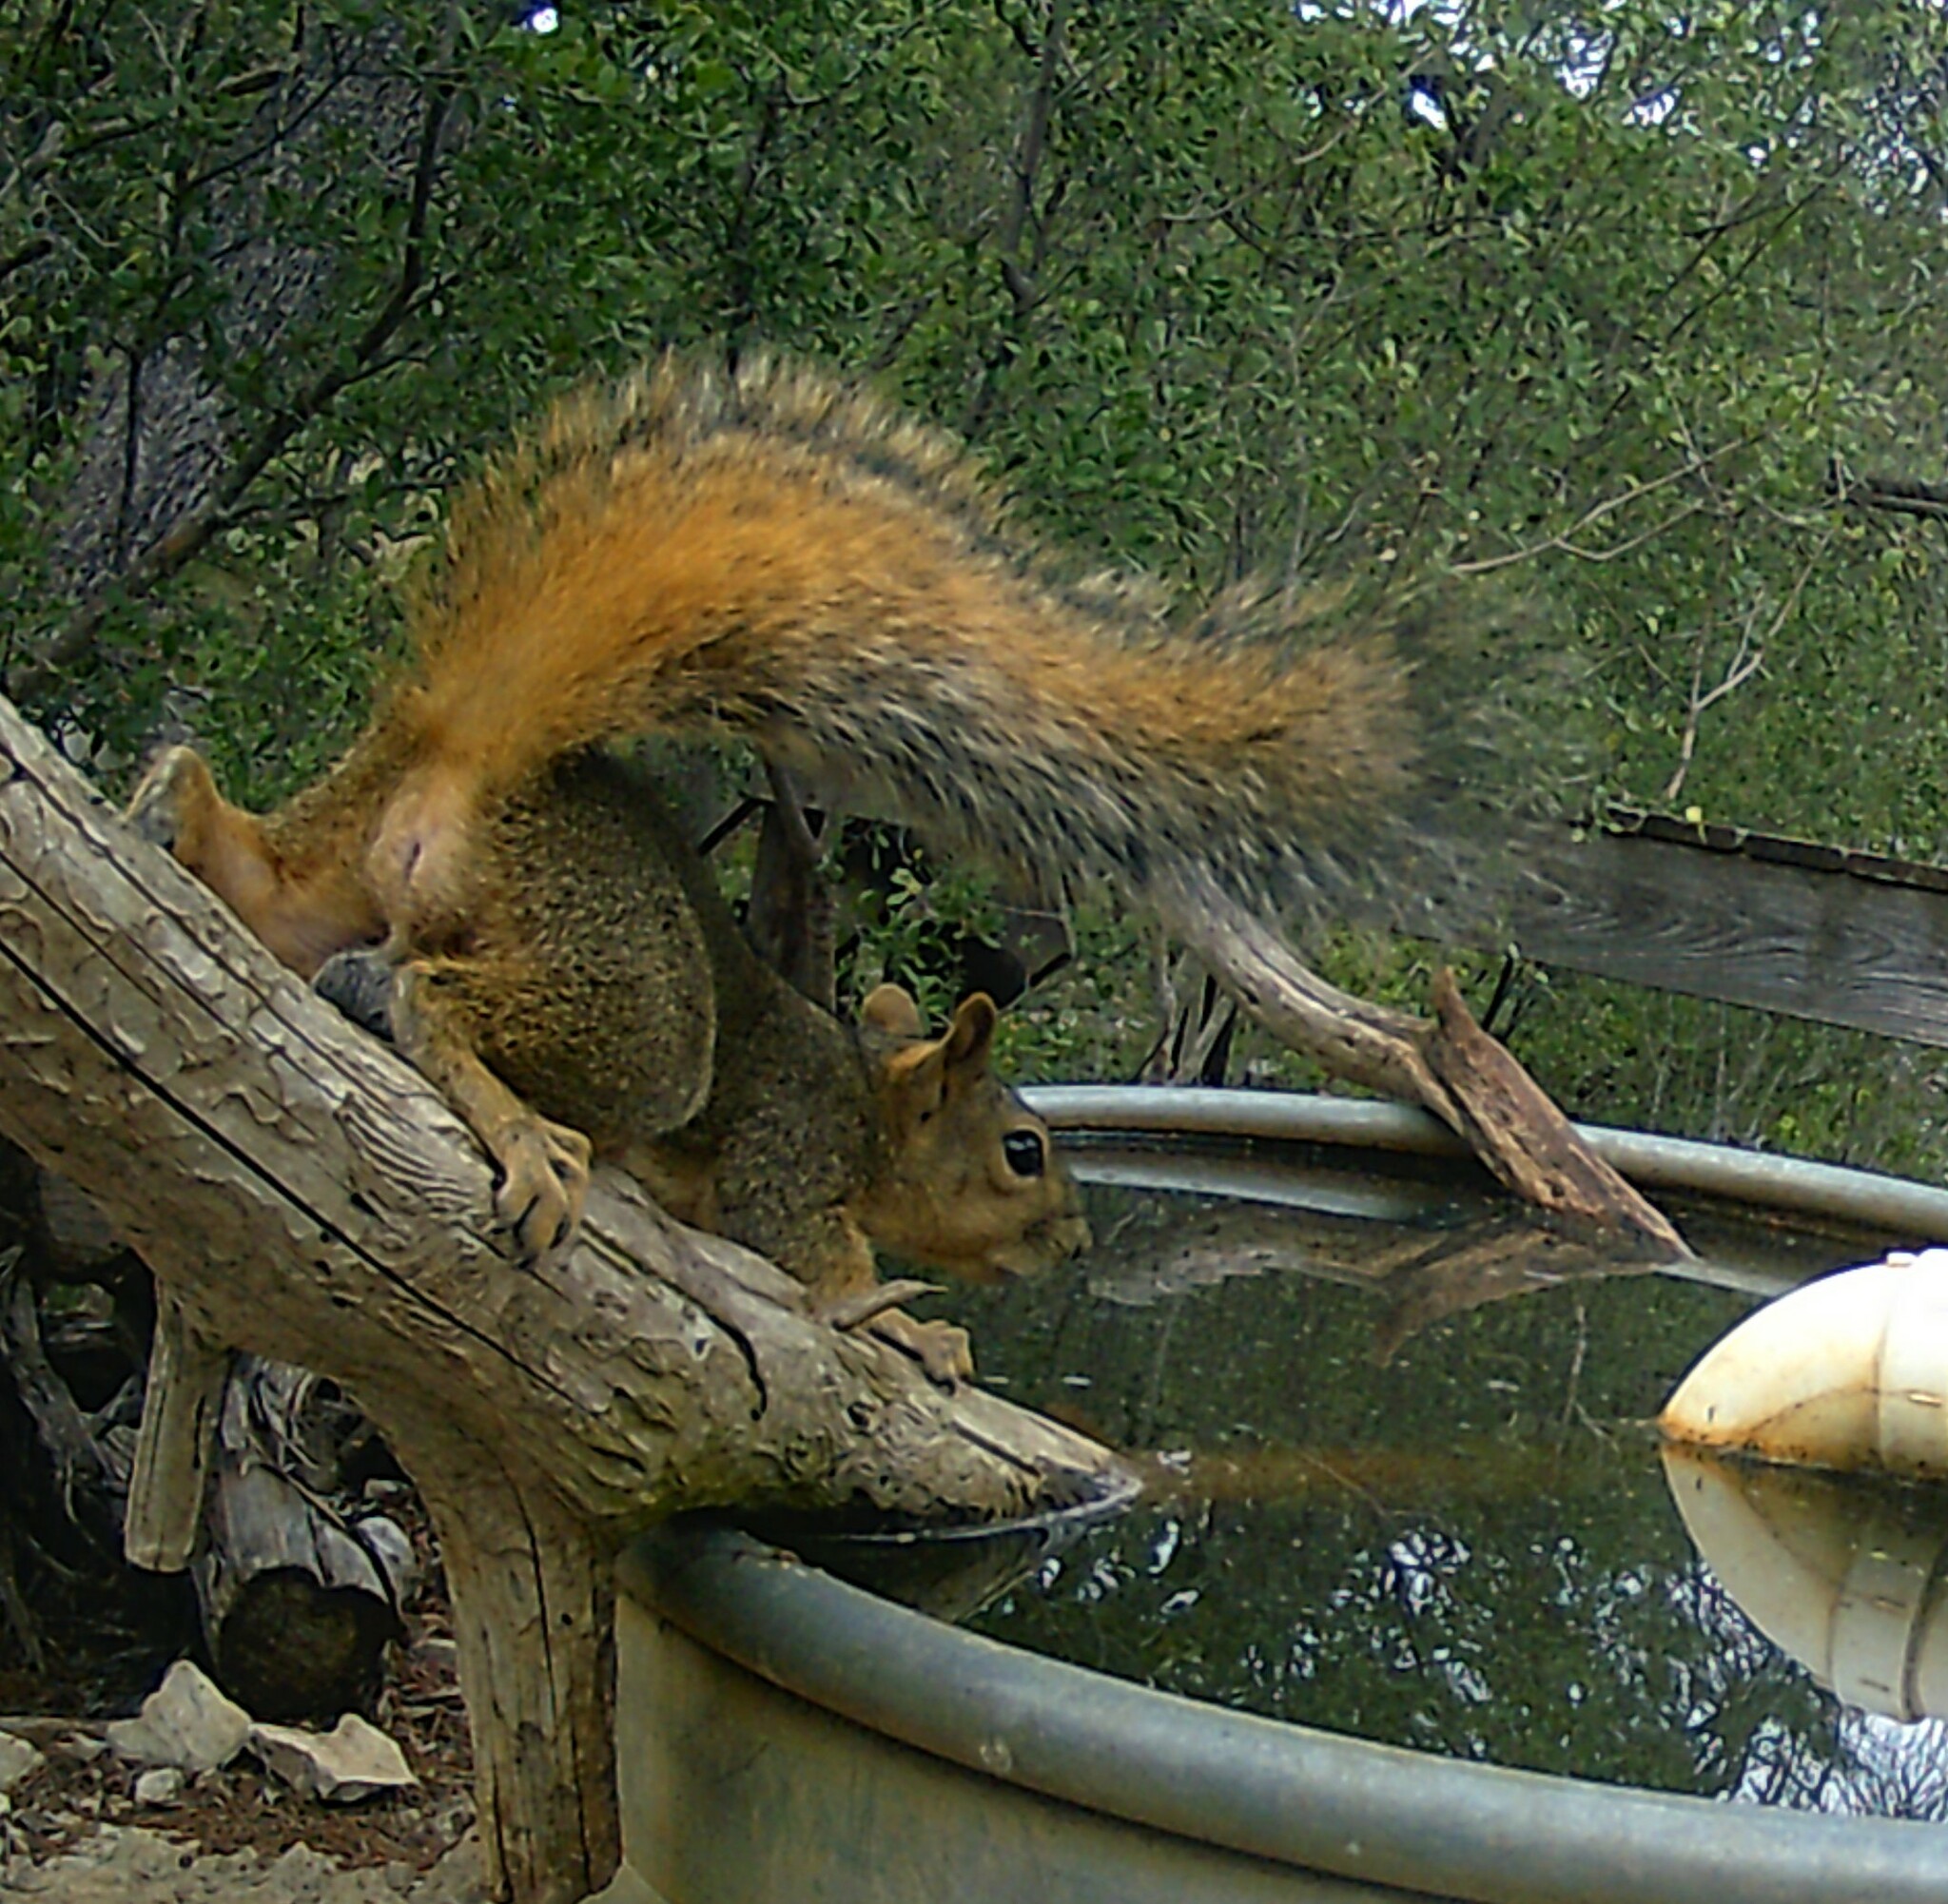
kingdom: Animalia
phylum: Chordata
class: Mammalia
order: Rodentia
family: Sciuridae
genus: Sciurus
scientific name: Sciurus niger
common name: Fox squirrel
